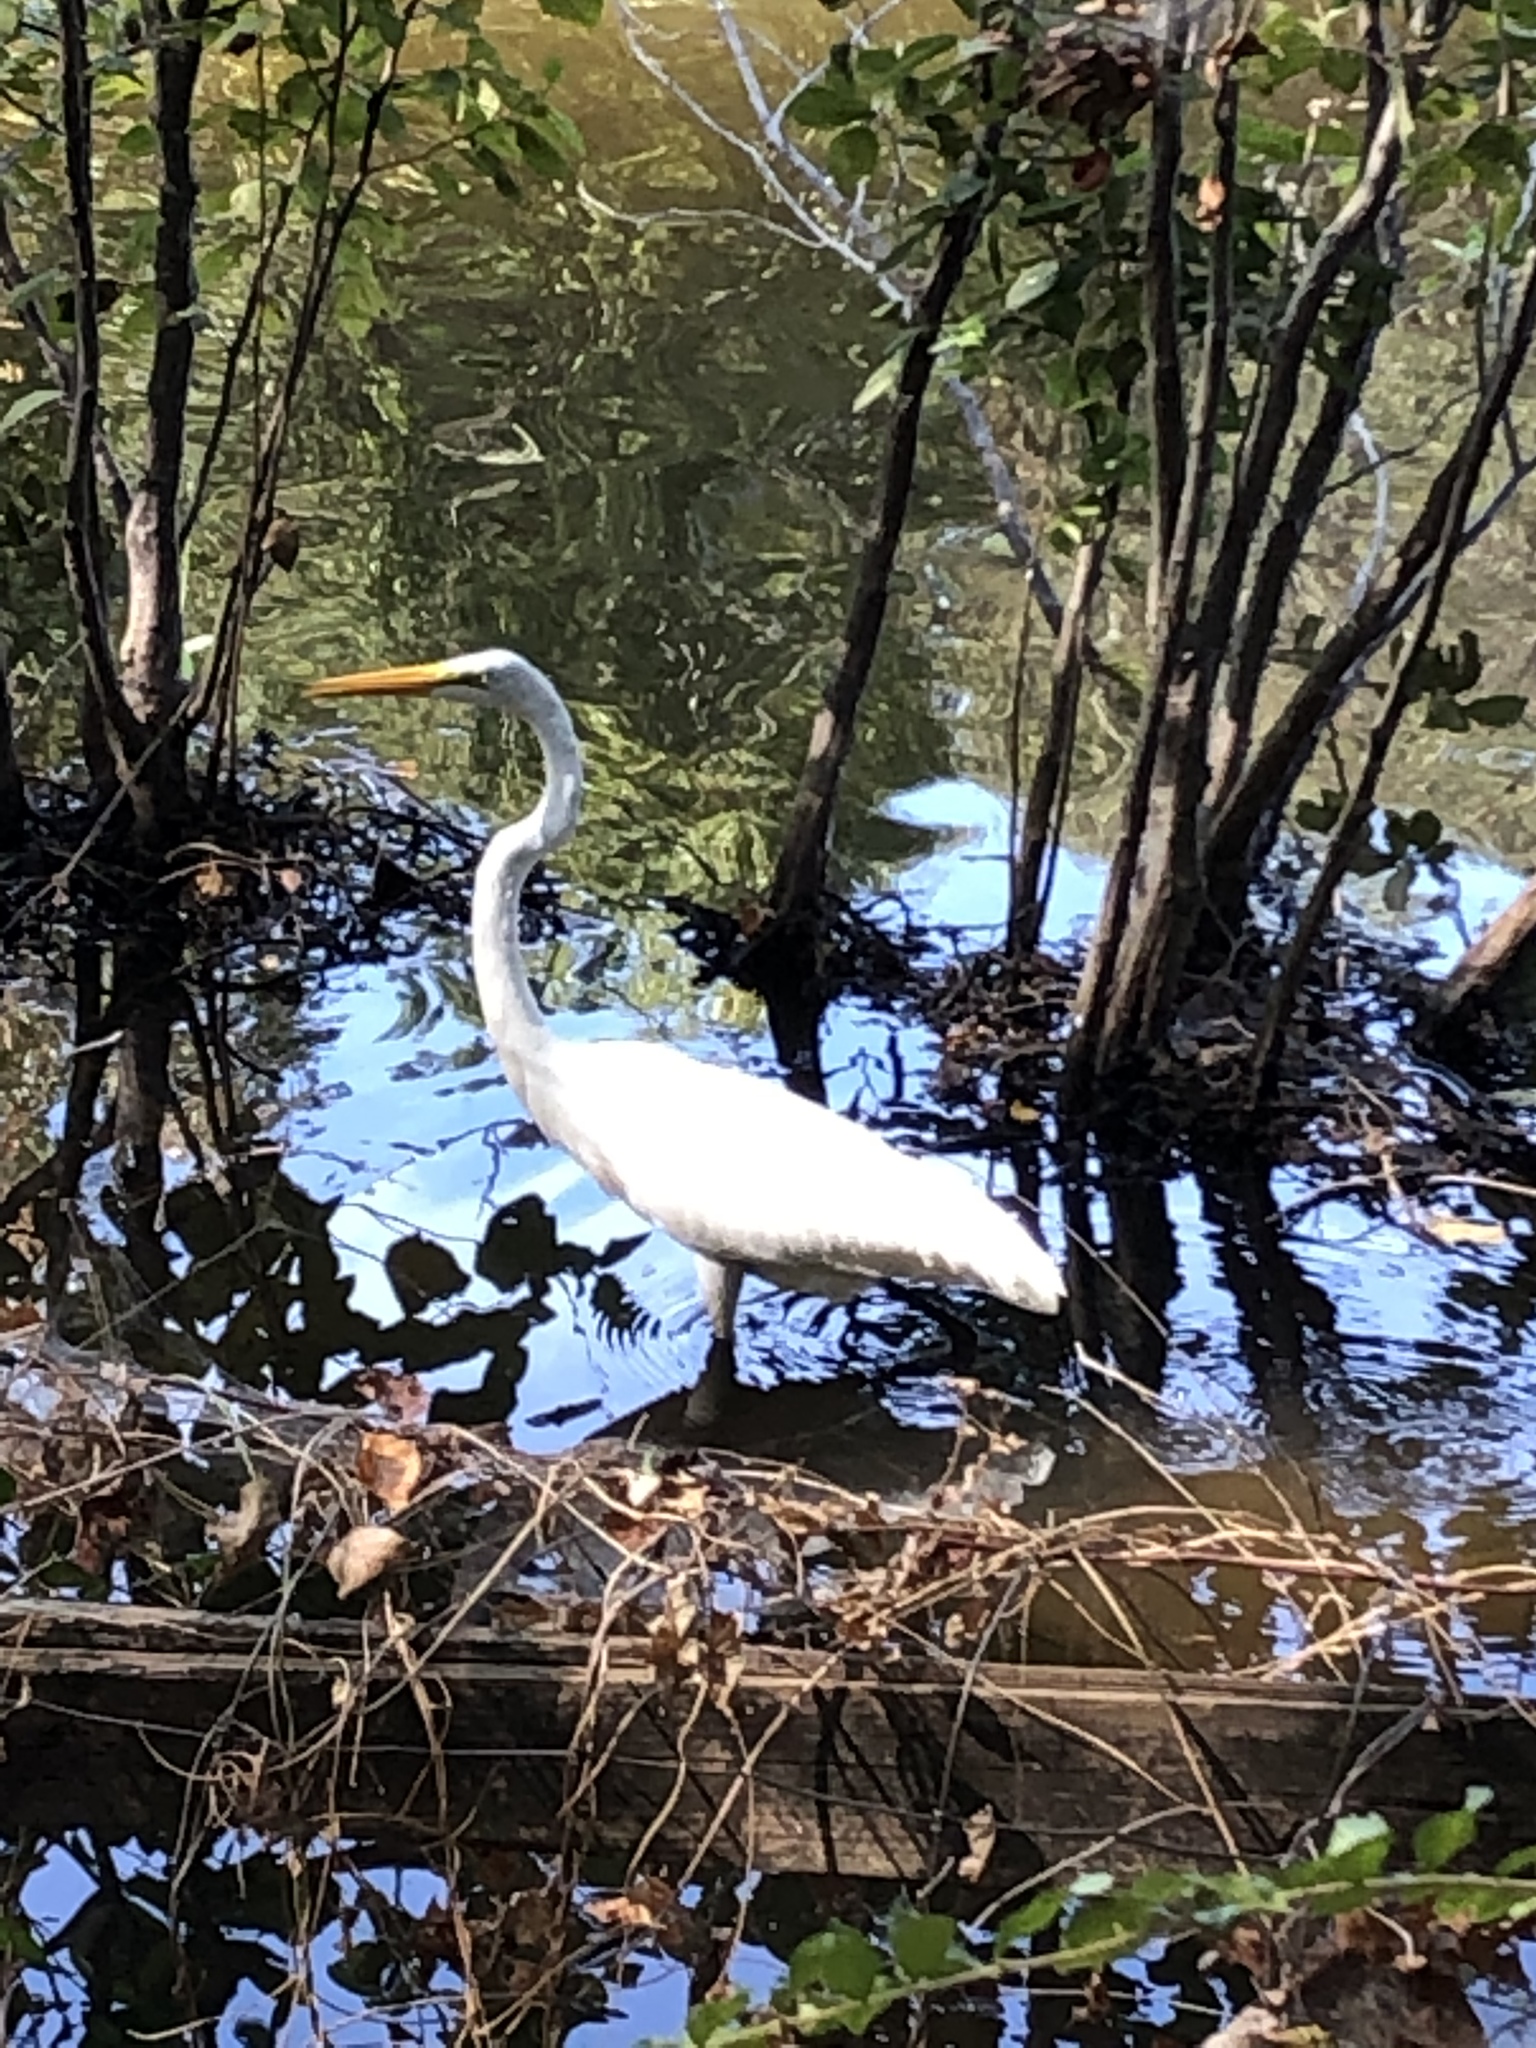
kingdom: Animalia
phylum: Chordata
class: Aves
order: Pelecaniformes
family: Ardeidae
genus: Ardea
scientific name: Ardea alba
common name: Great egret
